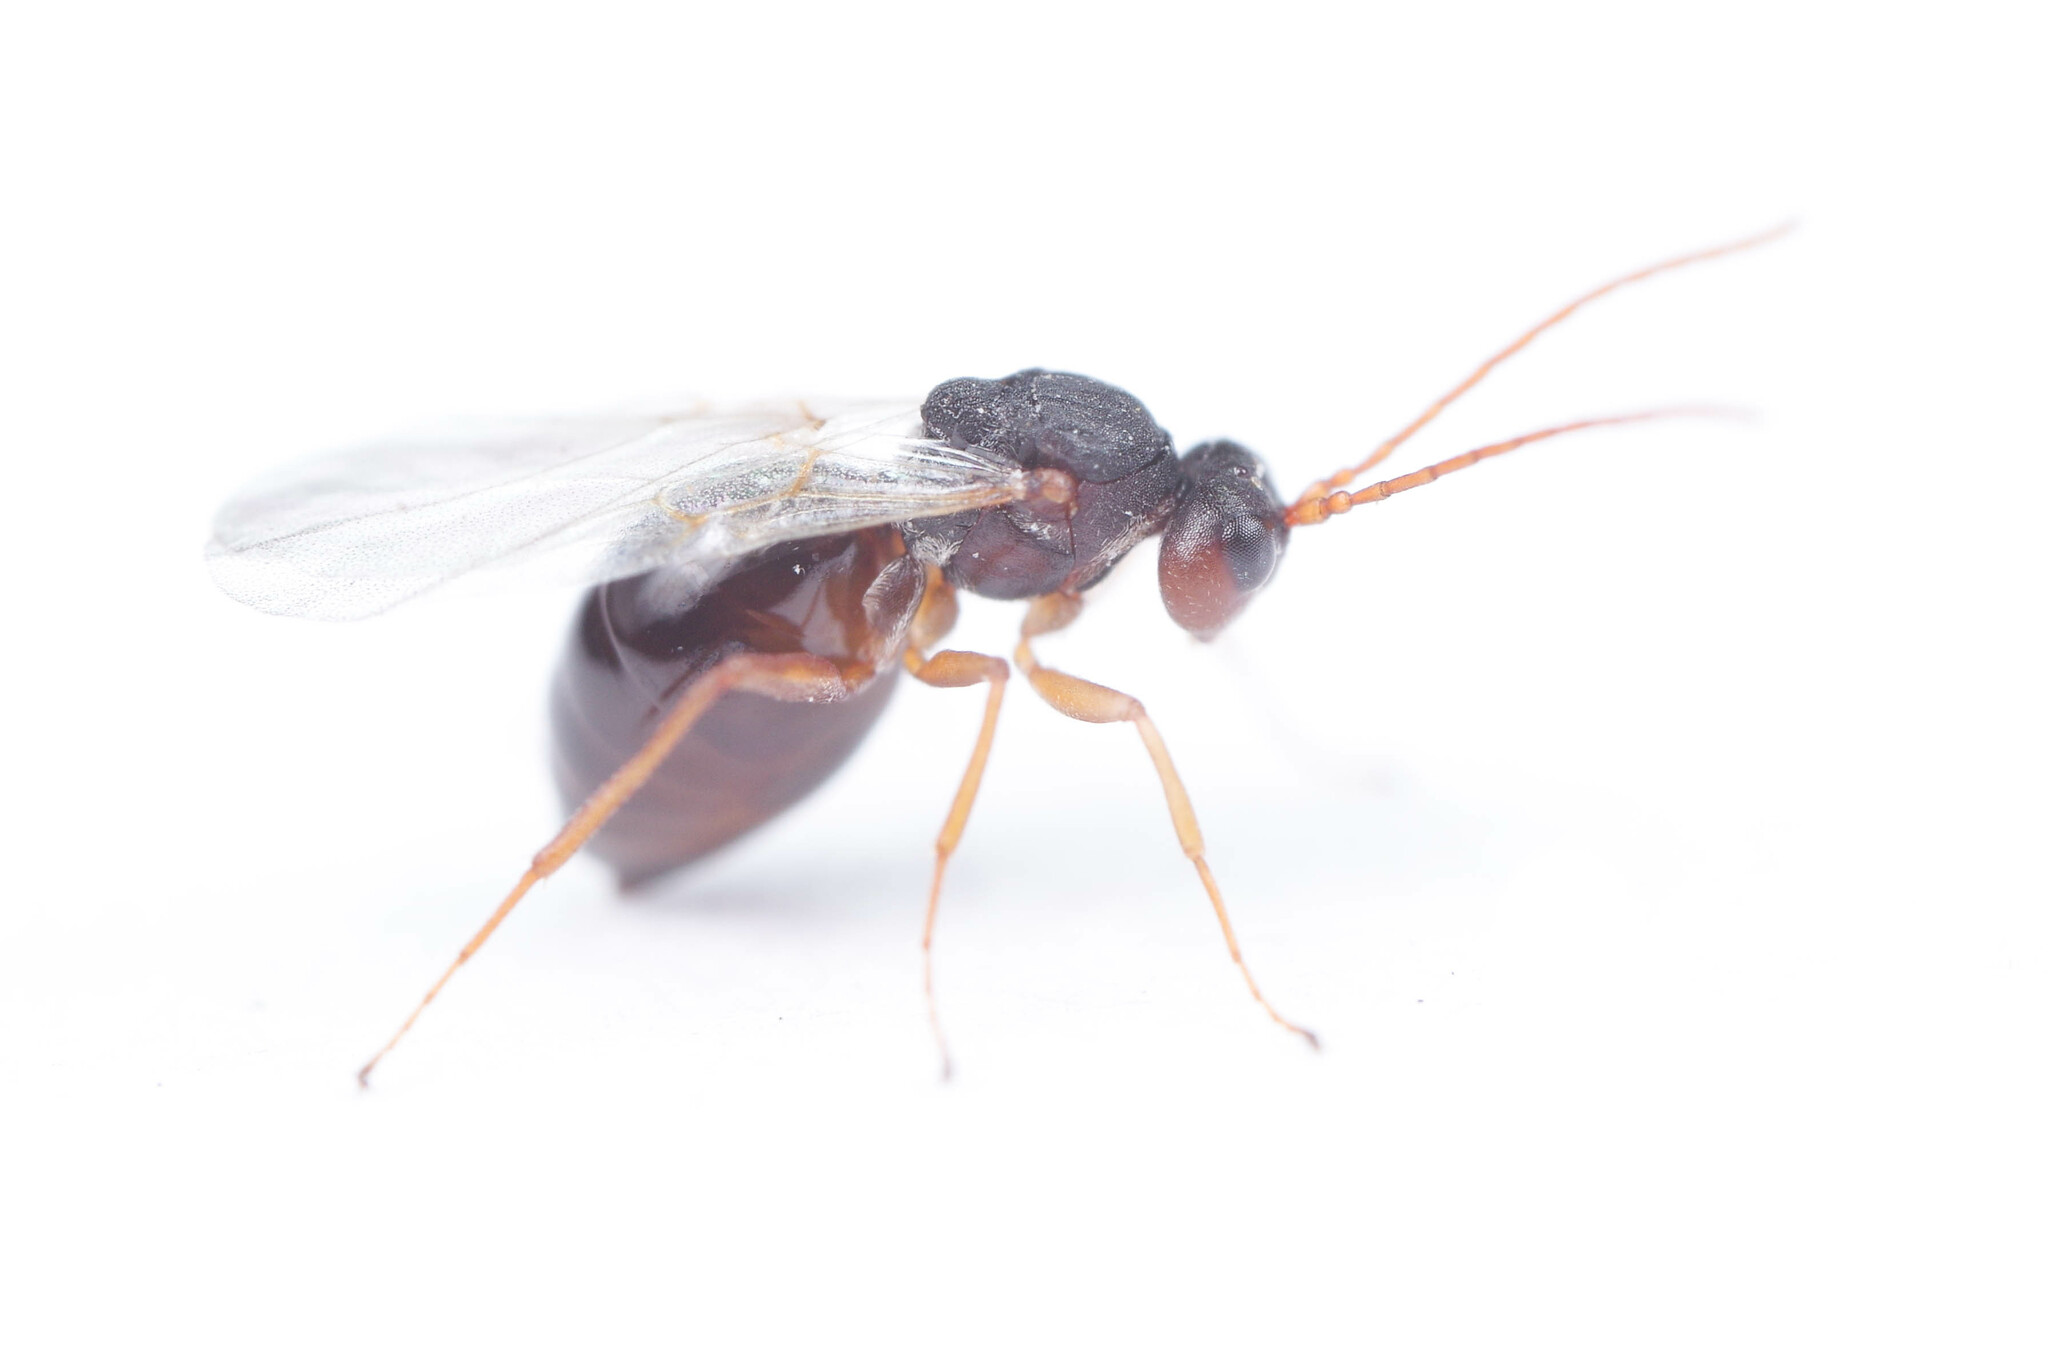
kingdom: Animalia
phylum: Arthropoda
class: Insecta
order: Hymenoptera
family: Cynipidae
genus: Antistrophus
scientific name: Antistrophus
